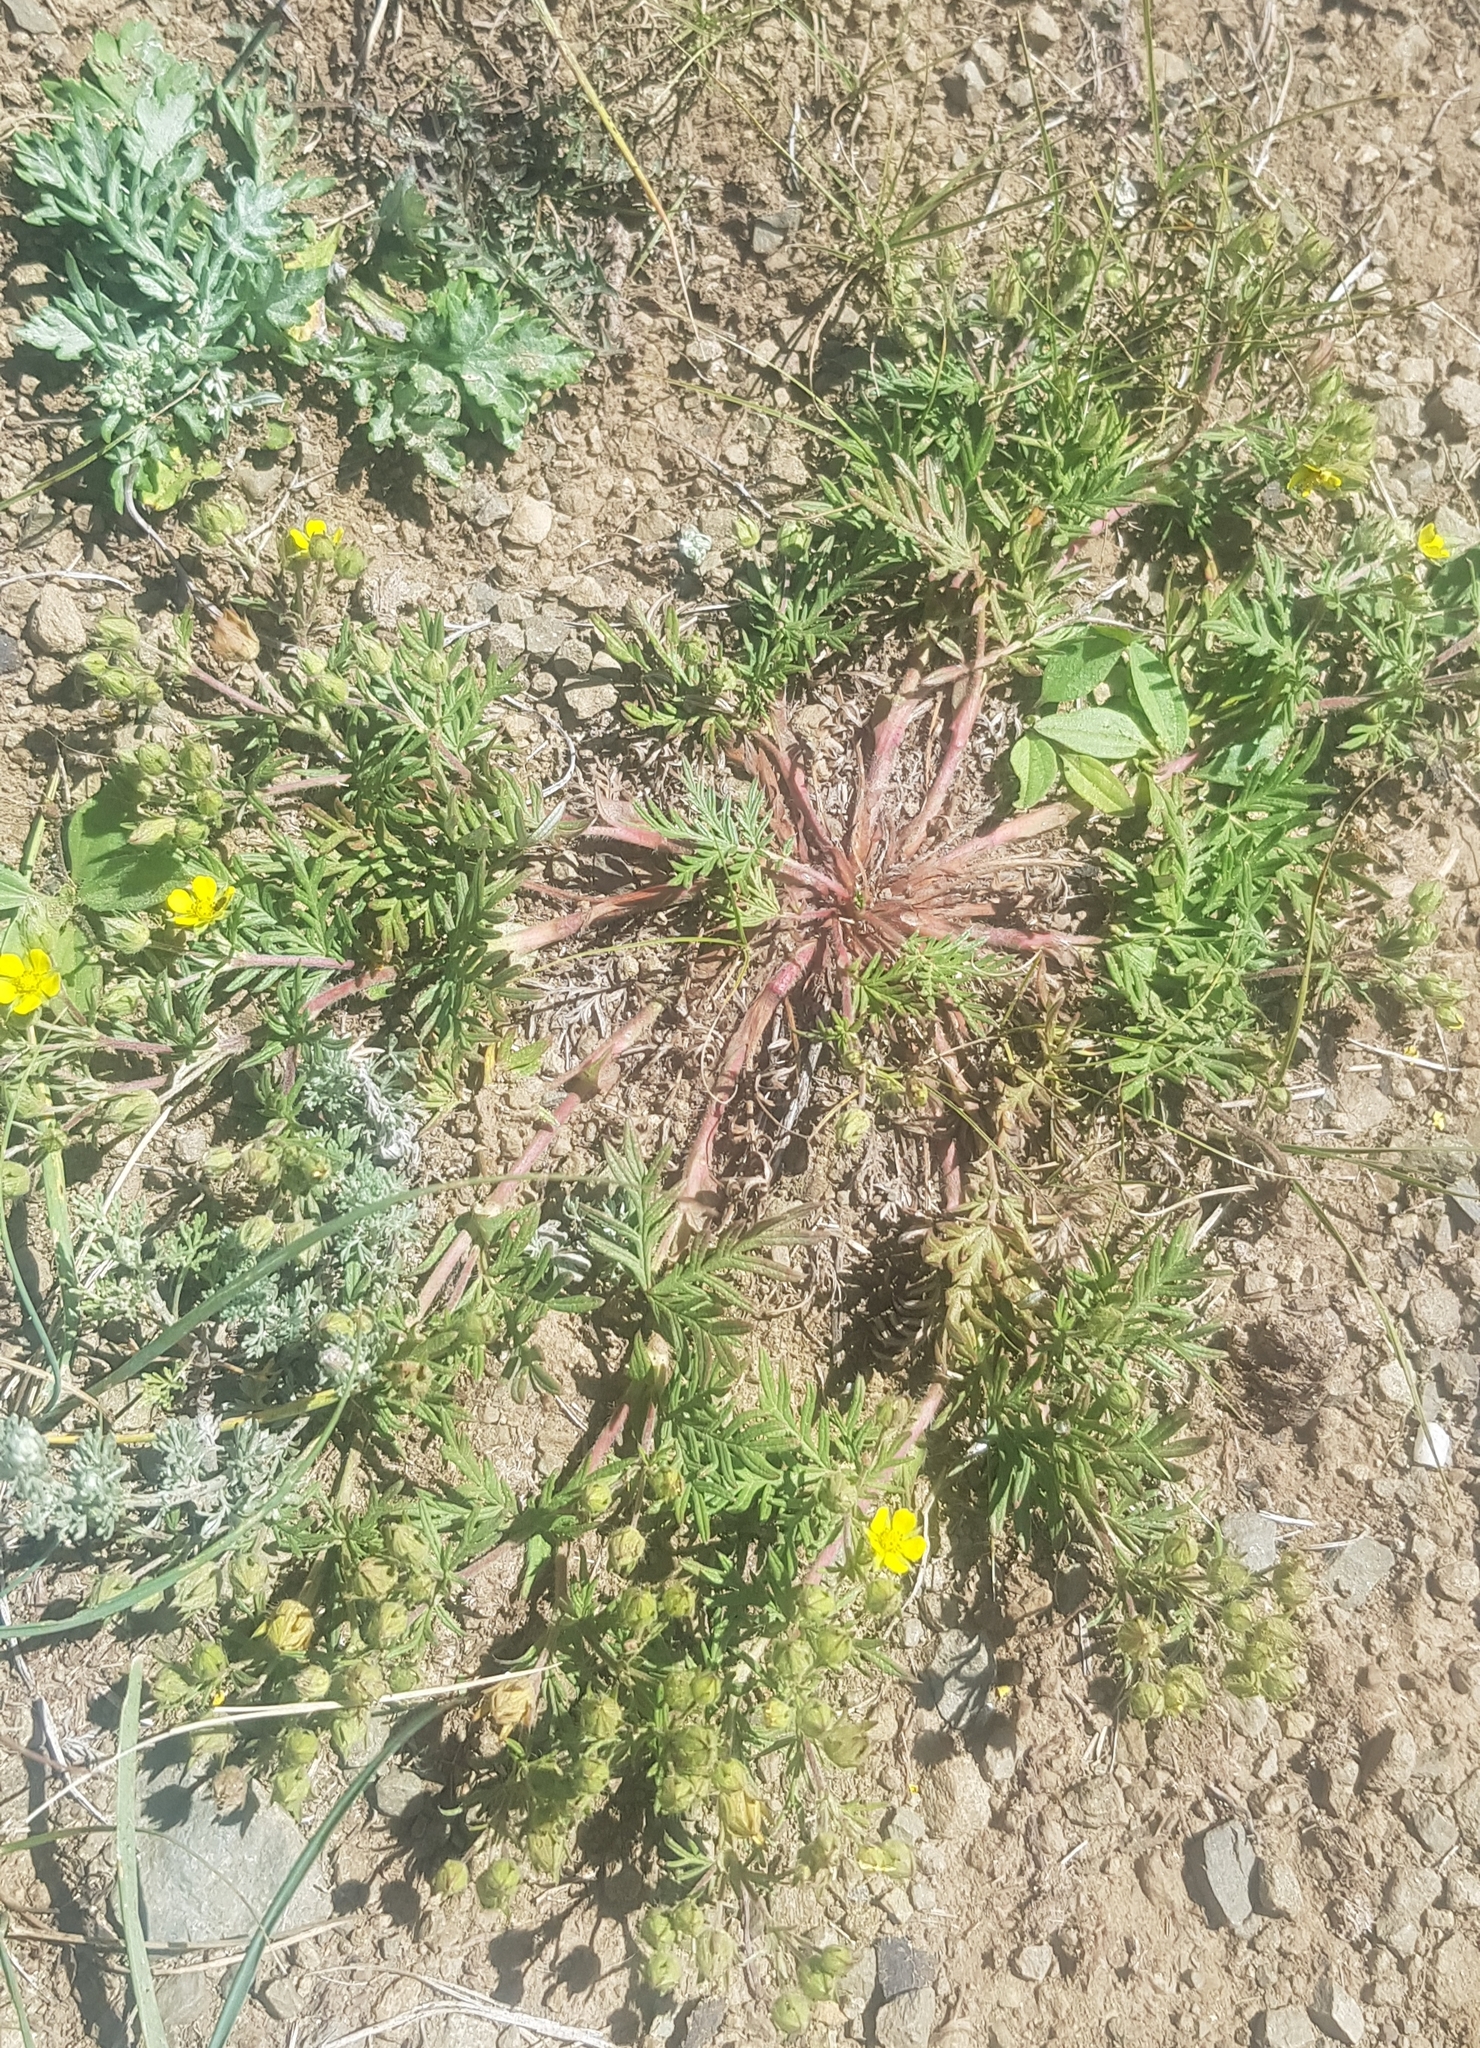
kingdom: Plantae
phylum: Tracheophyta
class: Magnoliopsida
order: Rosales
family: Rosaceae
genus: Potentilla
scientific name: Potentilla supina
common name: Prostrate cinquefoil
